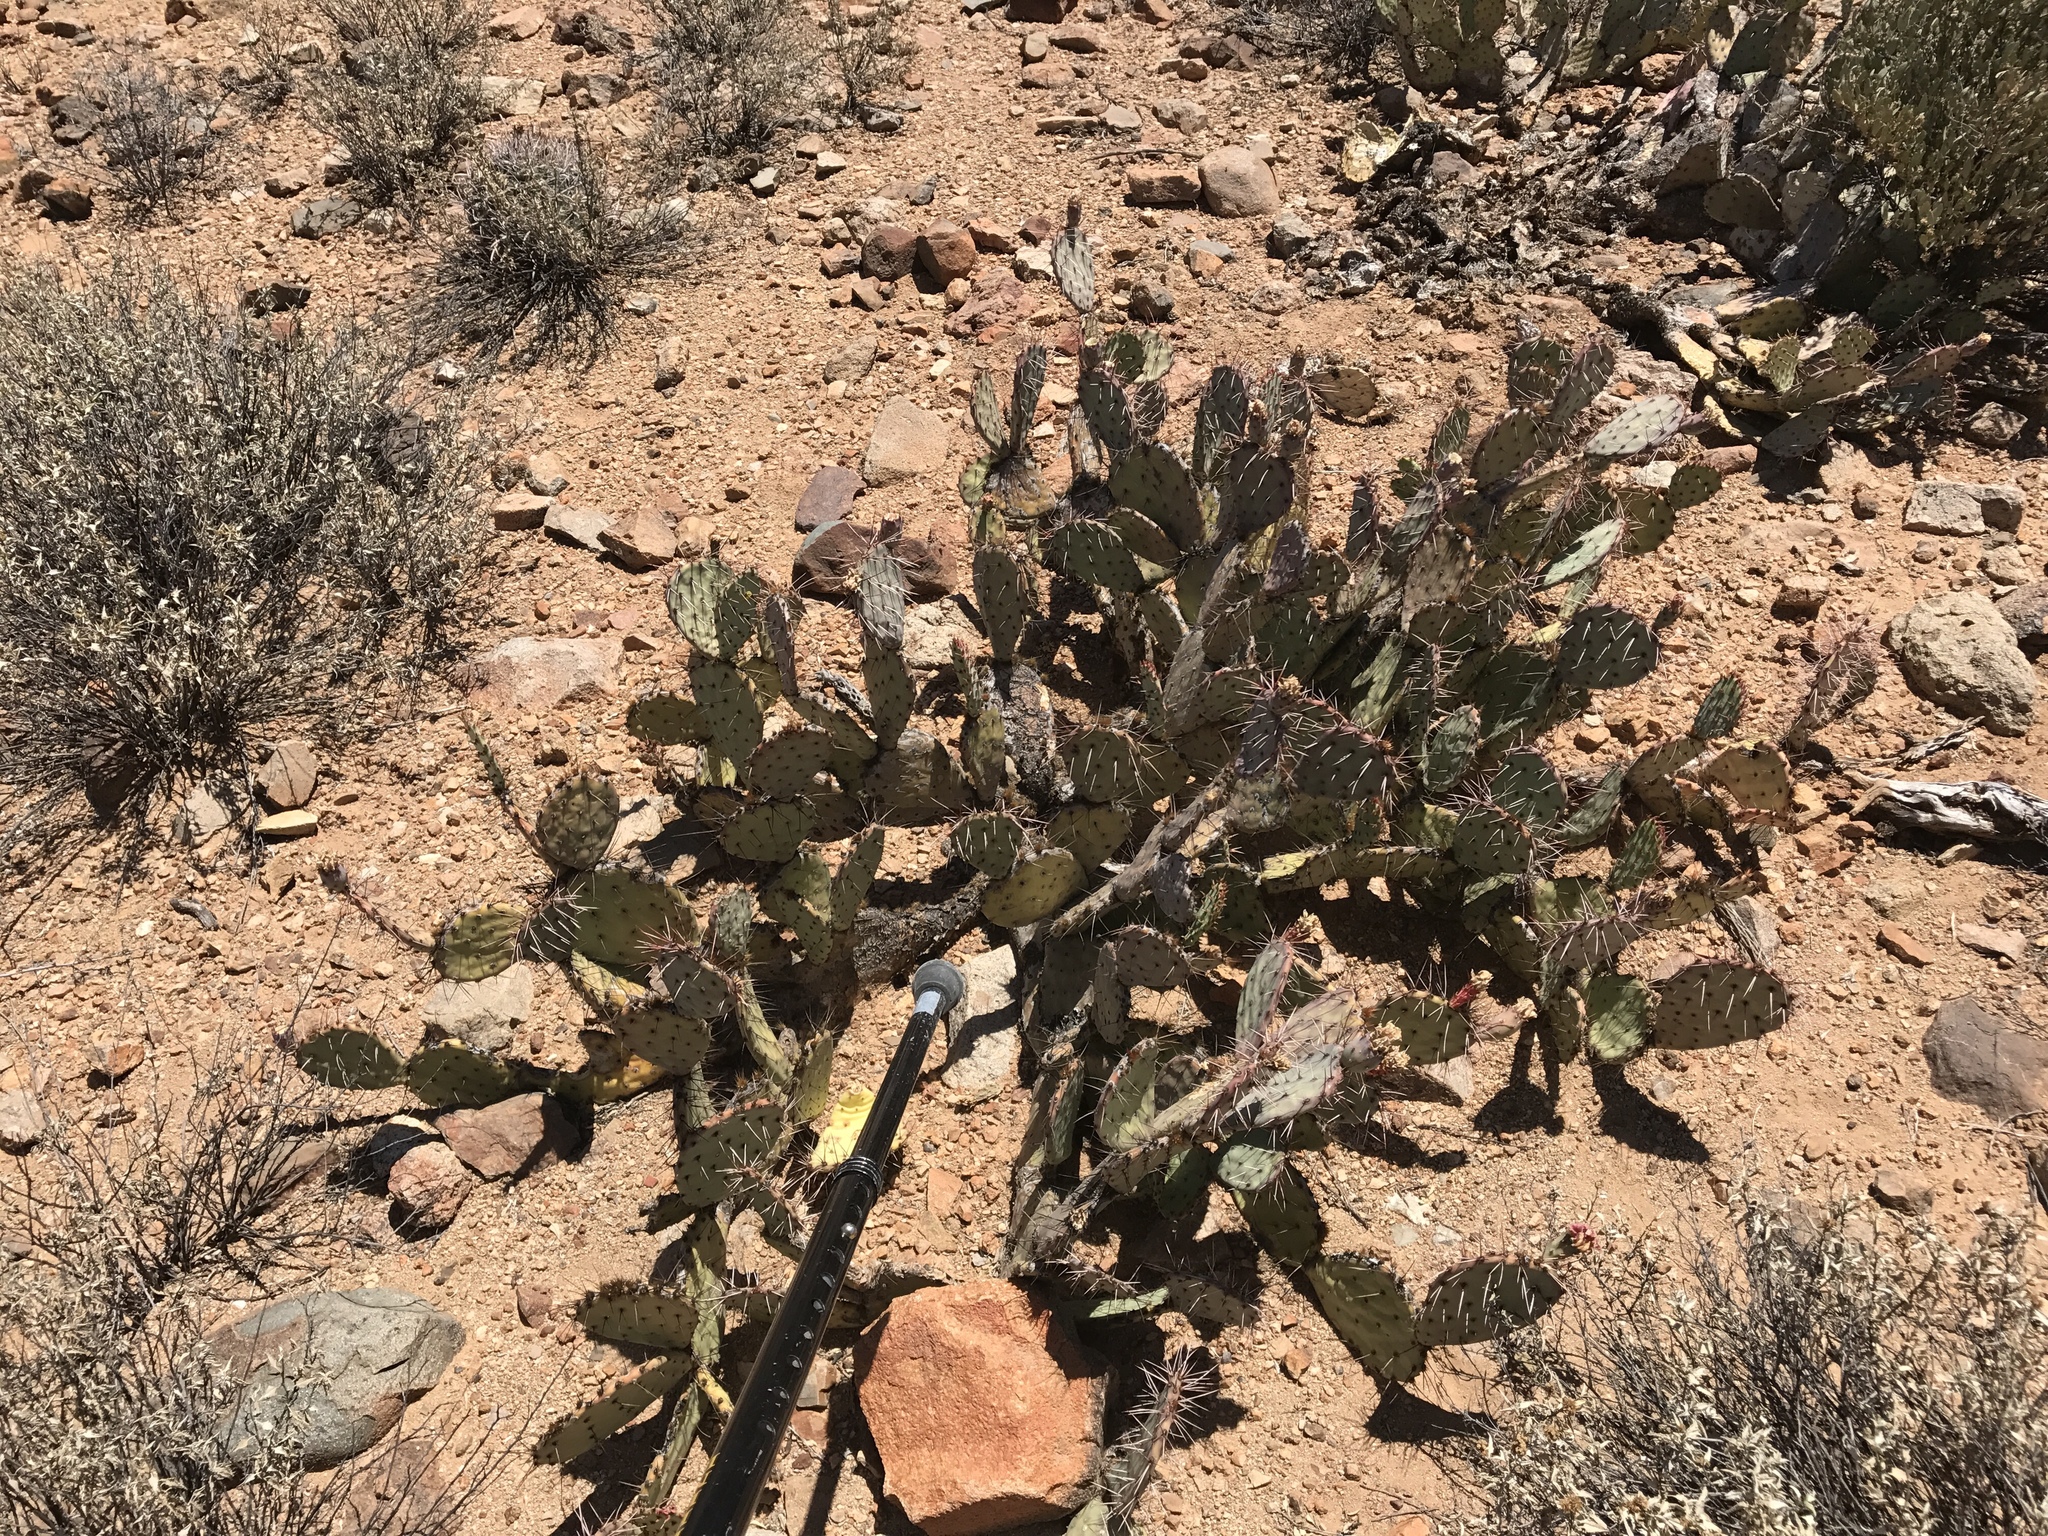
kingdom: Plantae
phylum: Tracheophyta
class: Magnoliopsida
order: Caryophyllales
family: Cactaceae
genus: Opuntia
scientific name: Opuntia phaeacantha
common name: New mexico prickly-pear
